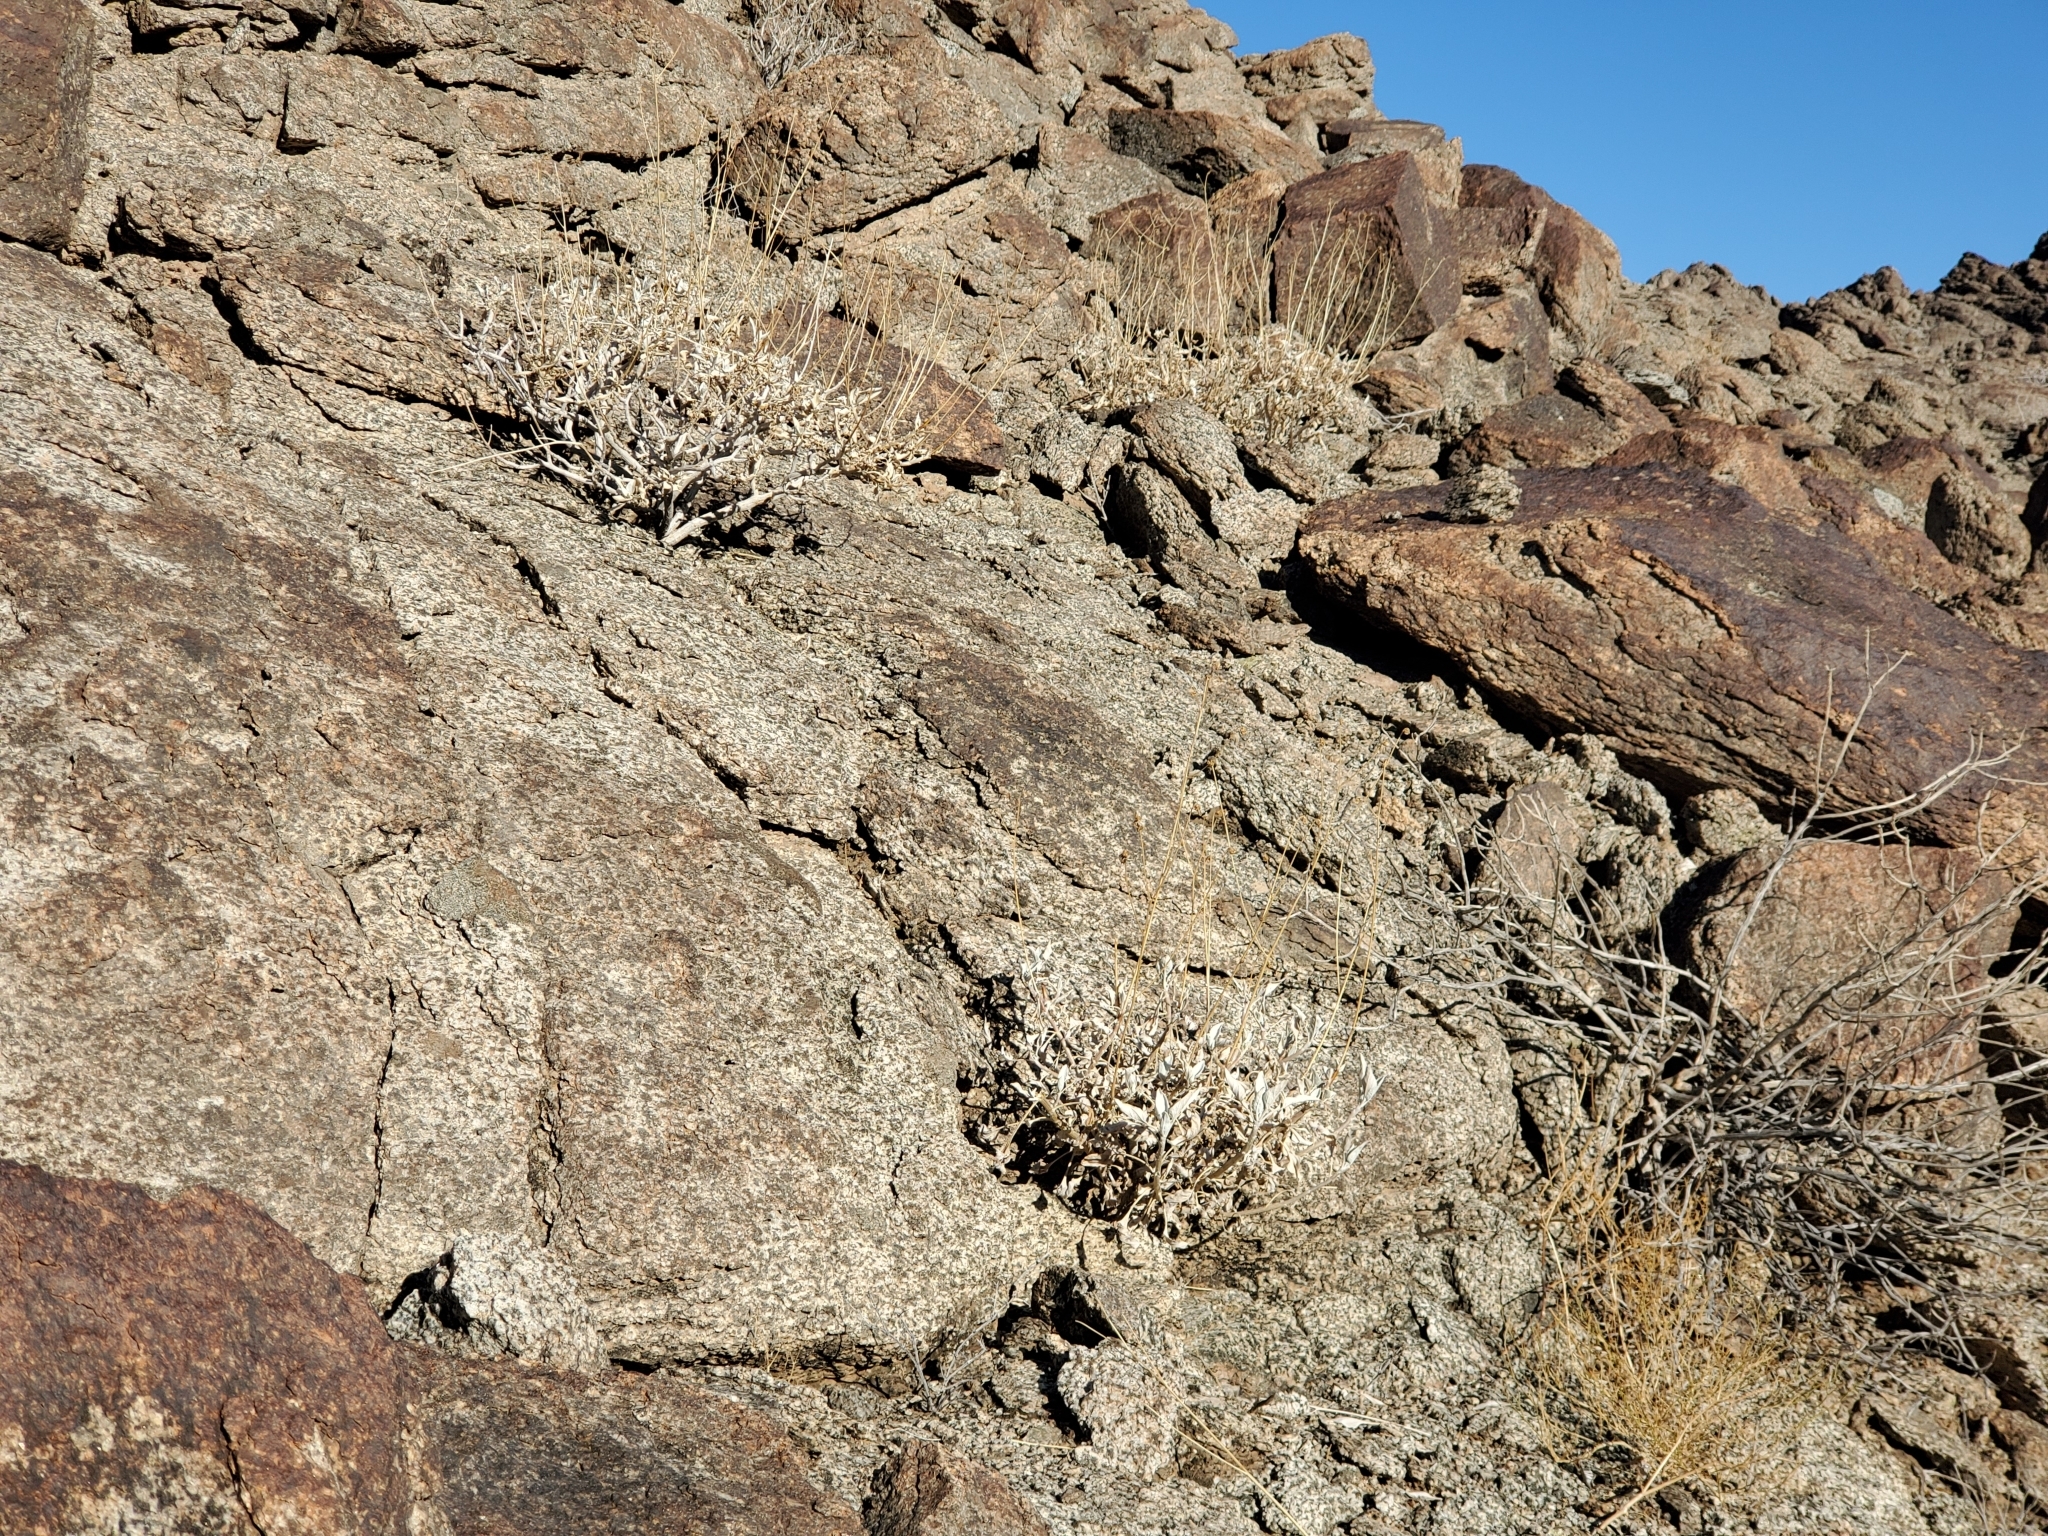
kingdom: Plantae
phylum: Tracheophyta
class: Magnoliopsida
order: Asterales
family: Asteraceae
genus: Encelia
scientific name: Encelia farinosa
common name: Brittlebush
